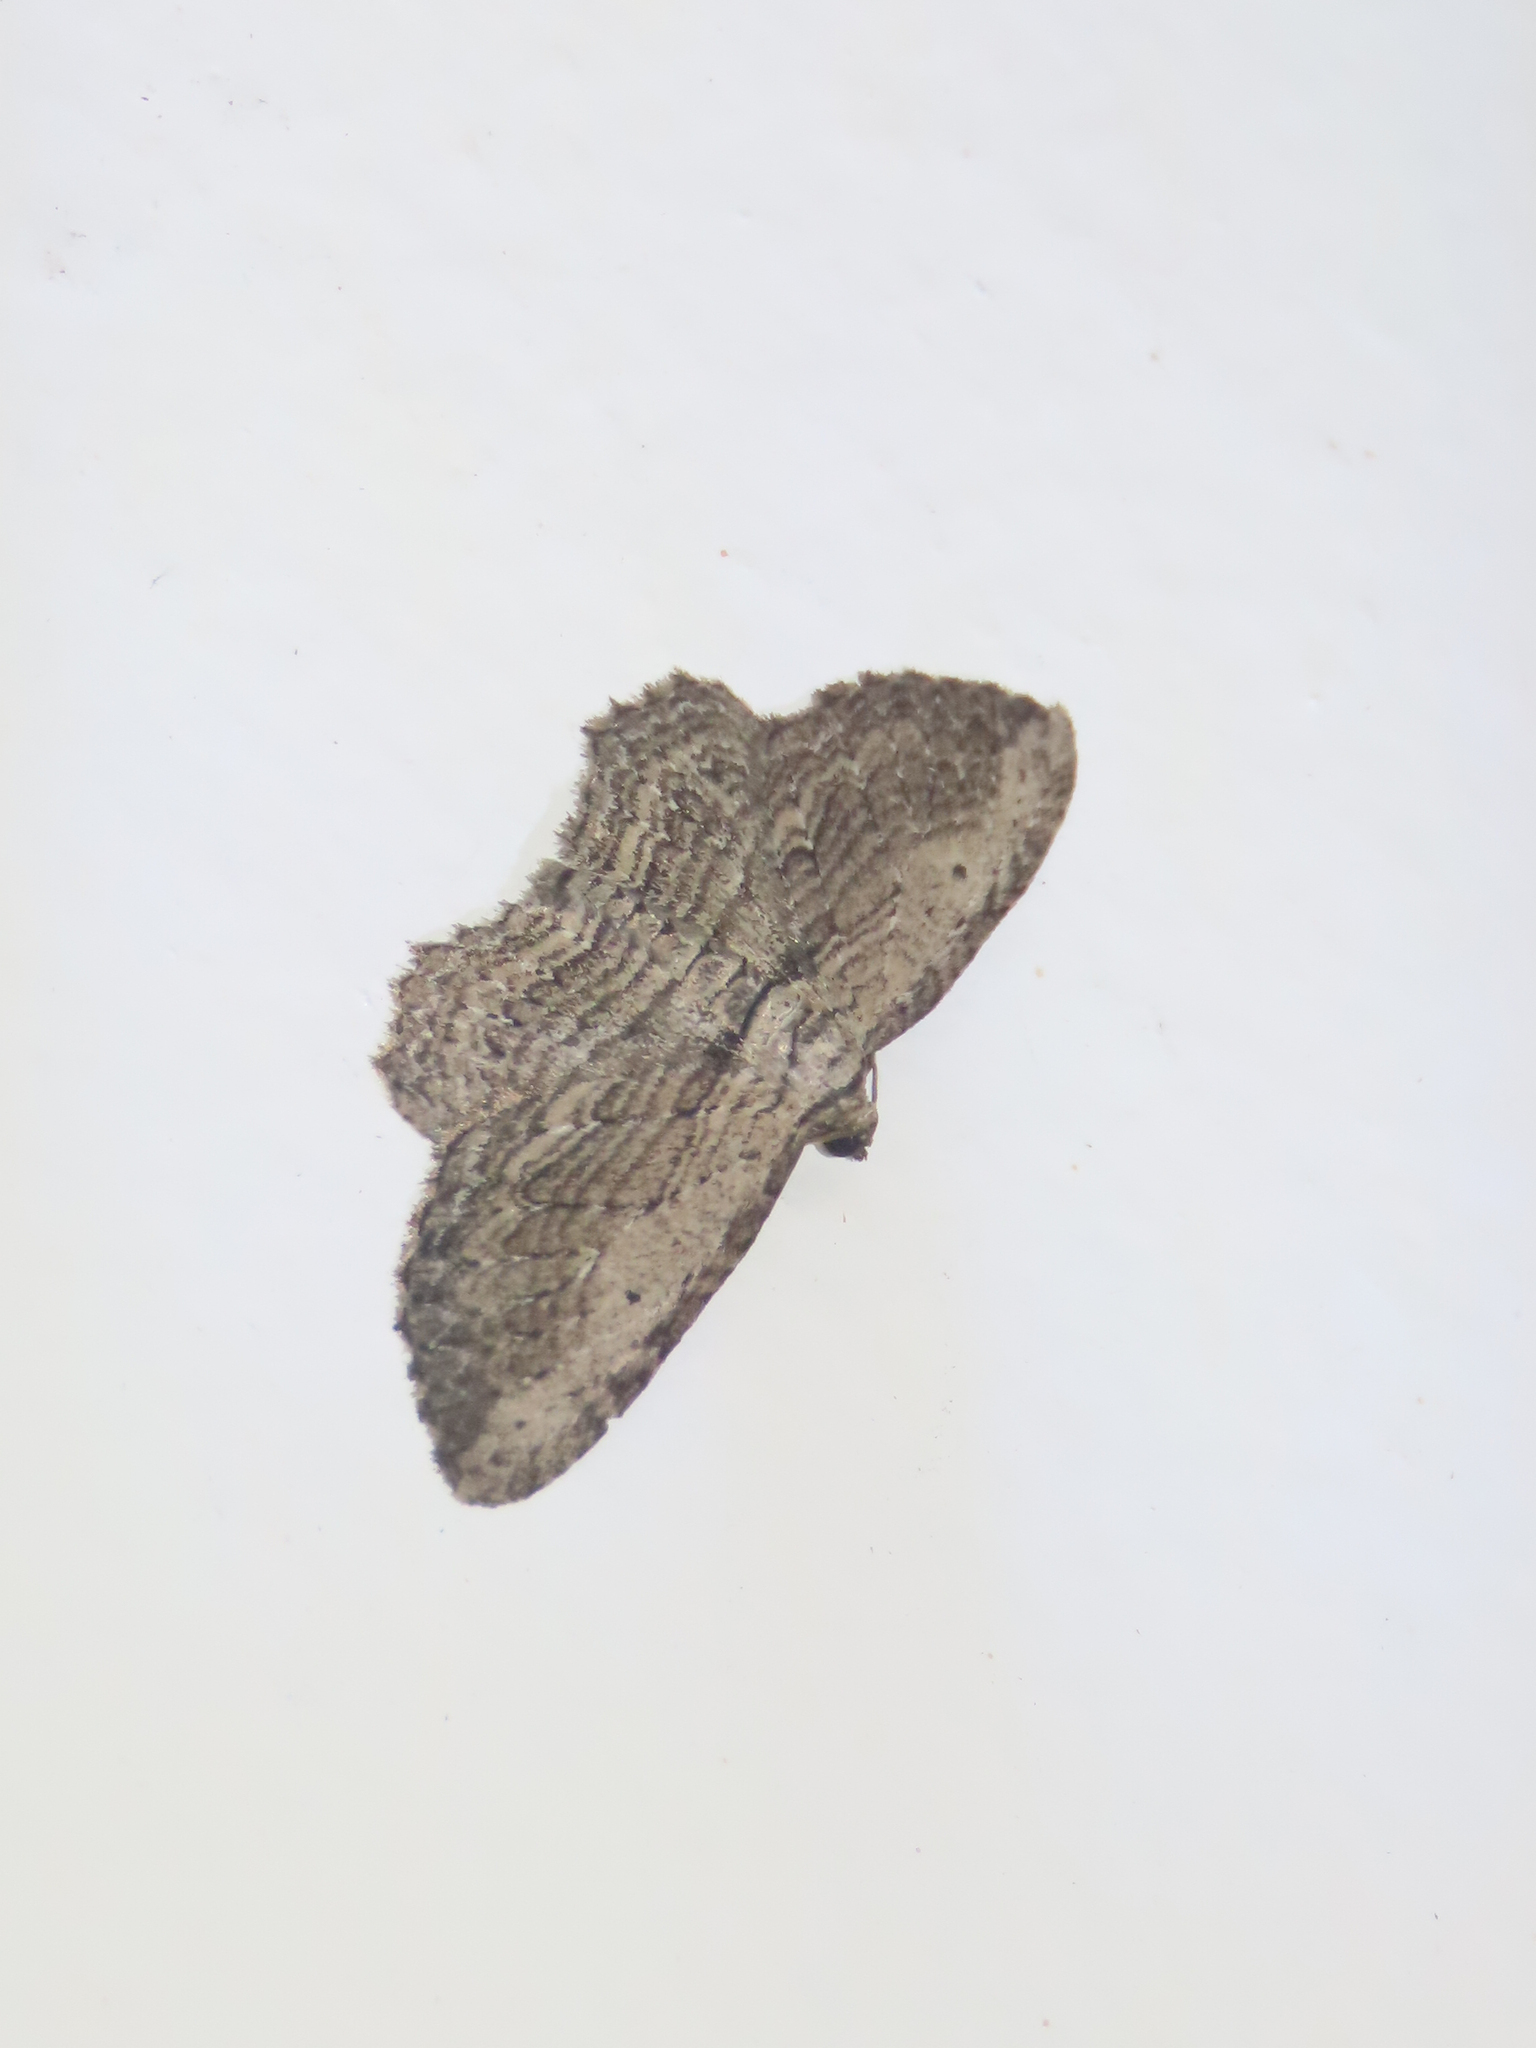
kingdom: Animalia
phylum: Arthropoda
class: Insecta
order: Lepidoptera
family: Geometridae
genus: Horisme
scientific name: Horisme intestinata
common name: Brown bark carpet
